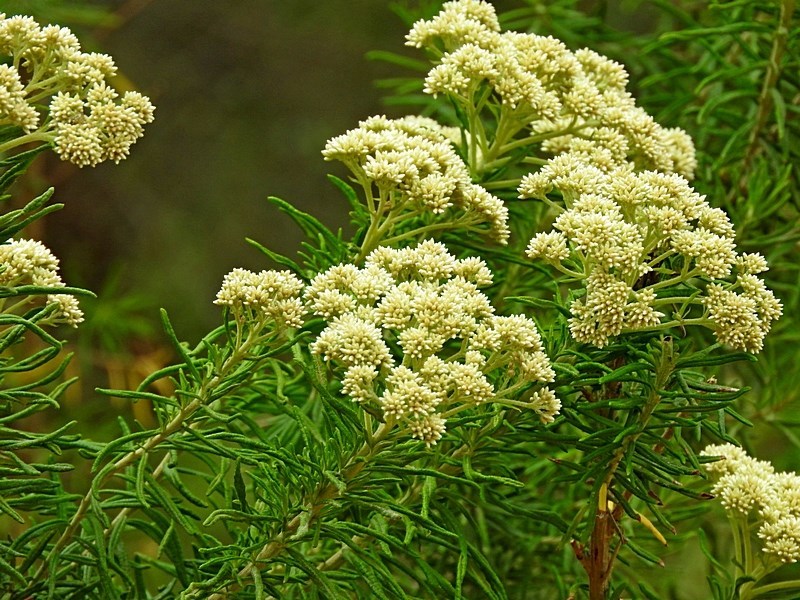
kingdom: Plantae
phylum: Tracheophyta
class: Magnoliopsida
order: Asterales
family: Asteraceae
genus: Cassinia
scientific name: Cassinia aculeata
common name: Australian tauhinu
